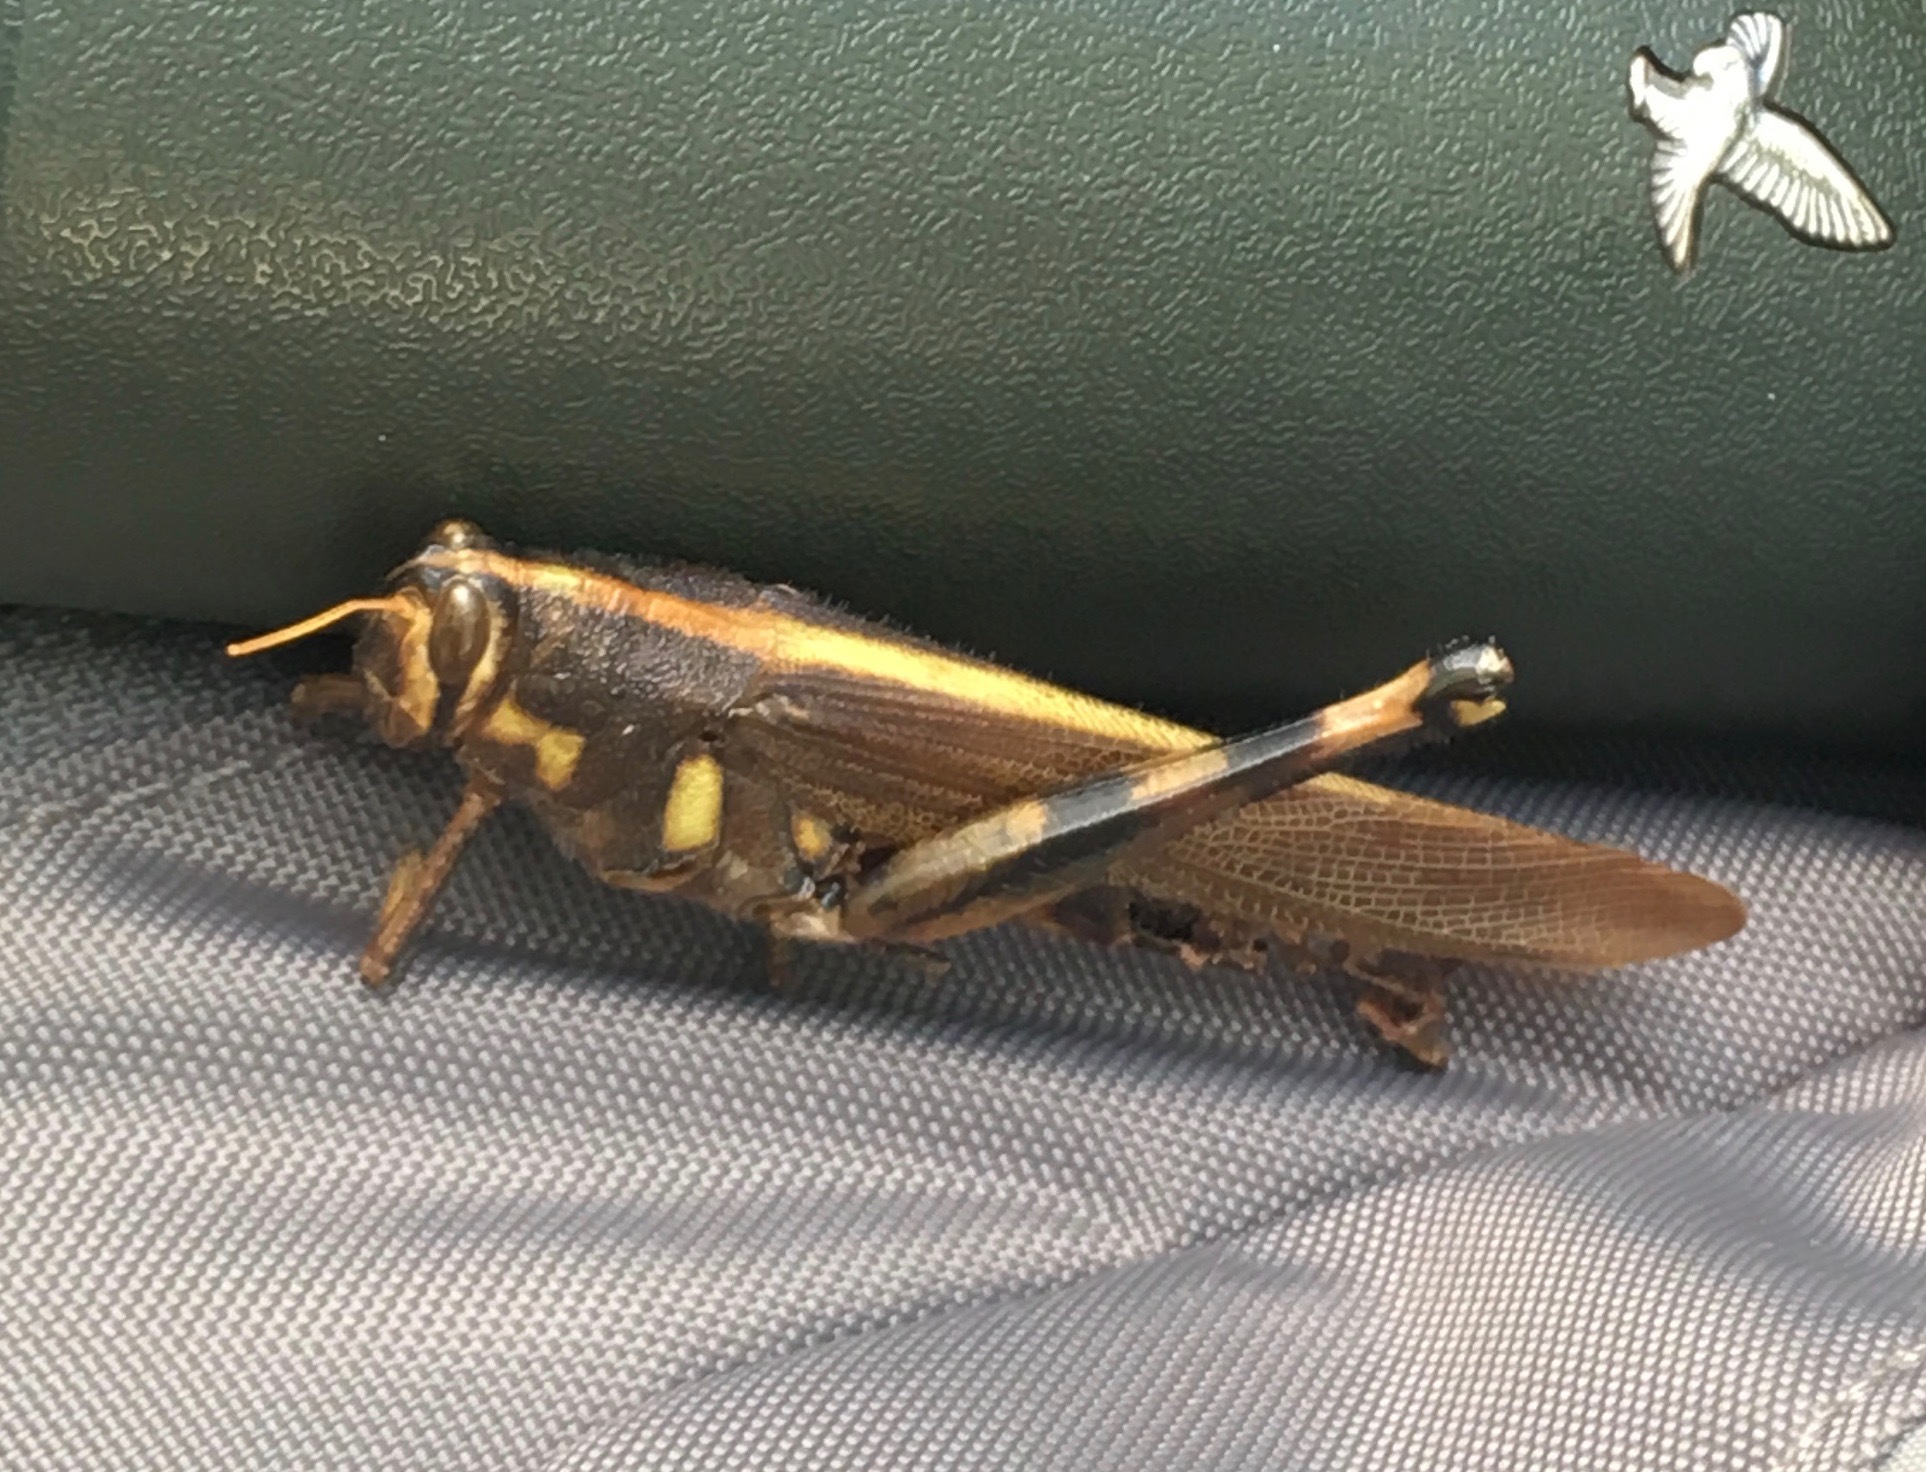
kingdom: Animalia
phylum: Arthropoda
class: Insecta
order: Orthoptera
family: Acrididae
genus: Schistocerca
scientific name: Schistocerca albolineata
